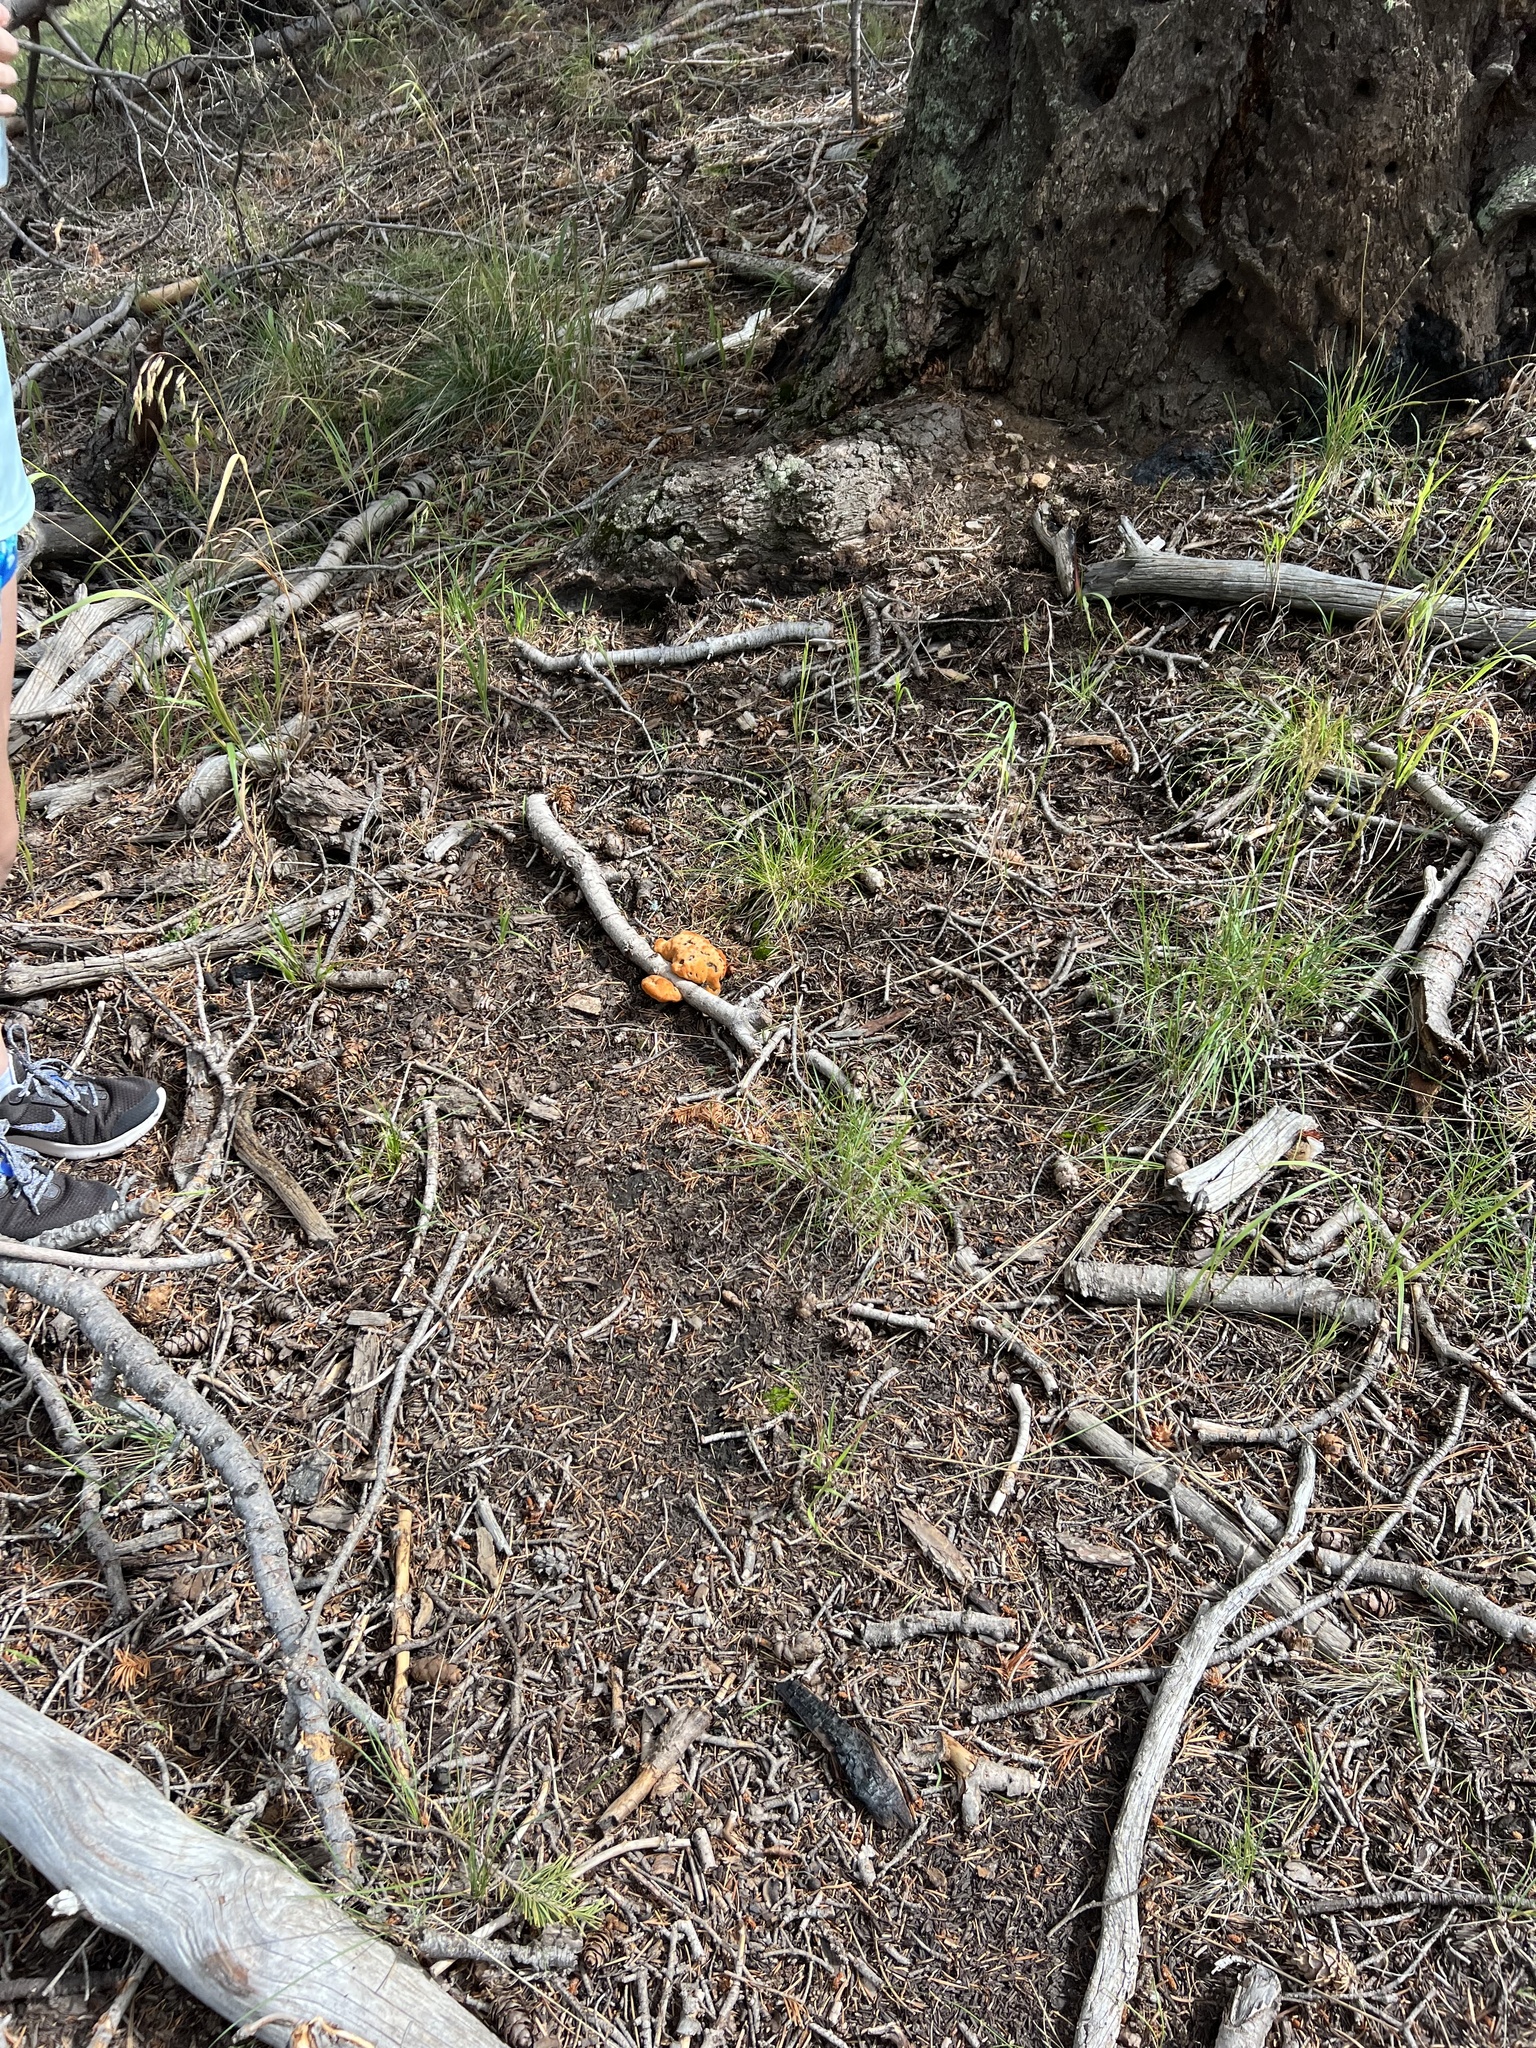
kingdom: Fungi
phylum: Basidiomycota
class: Agaricomycetes
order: Polyporales
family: Laetiporaceae
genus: Phaeolus
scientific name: Phaeolus schweinitzii
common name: Dyer's mazegill
